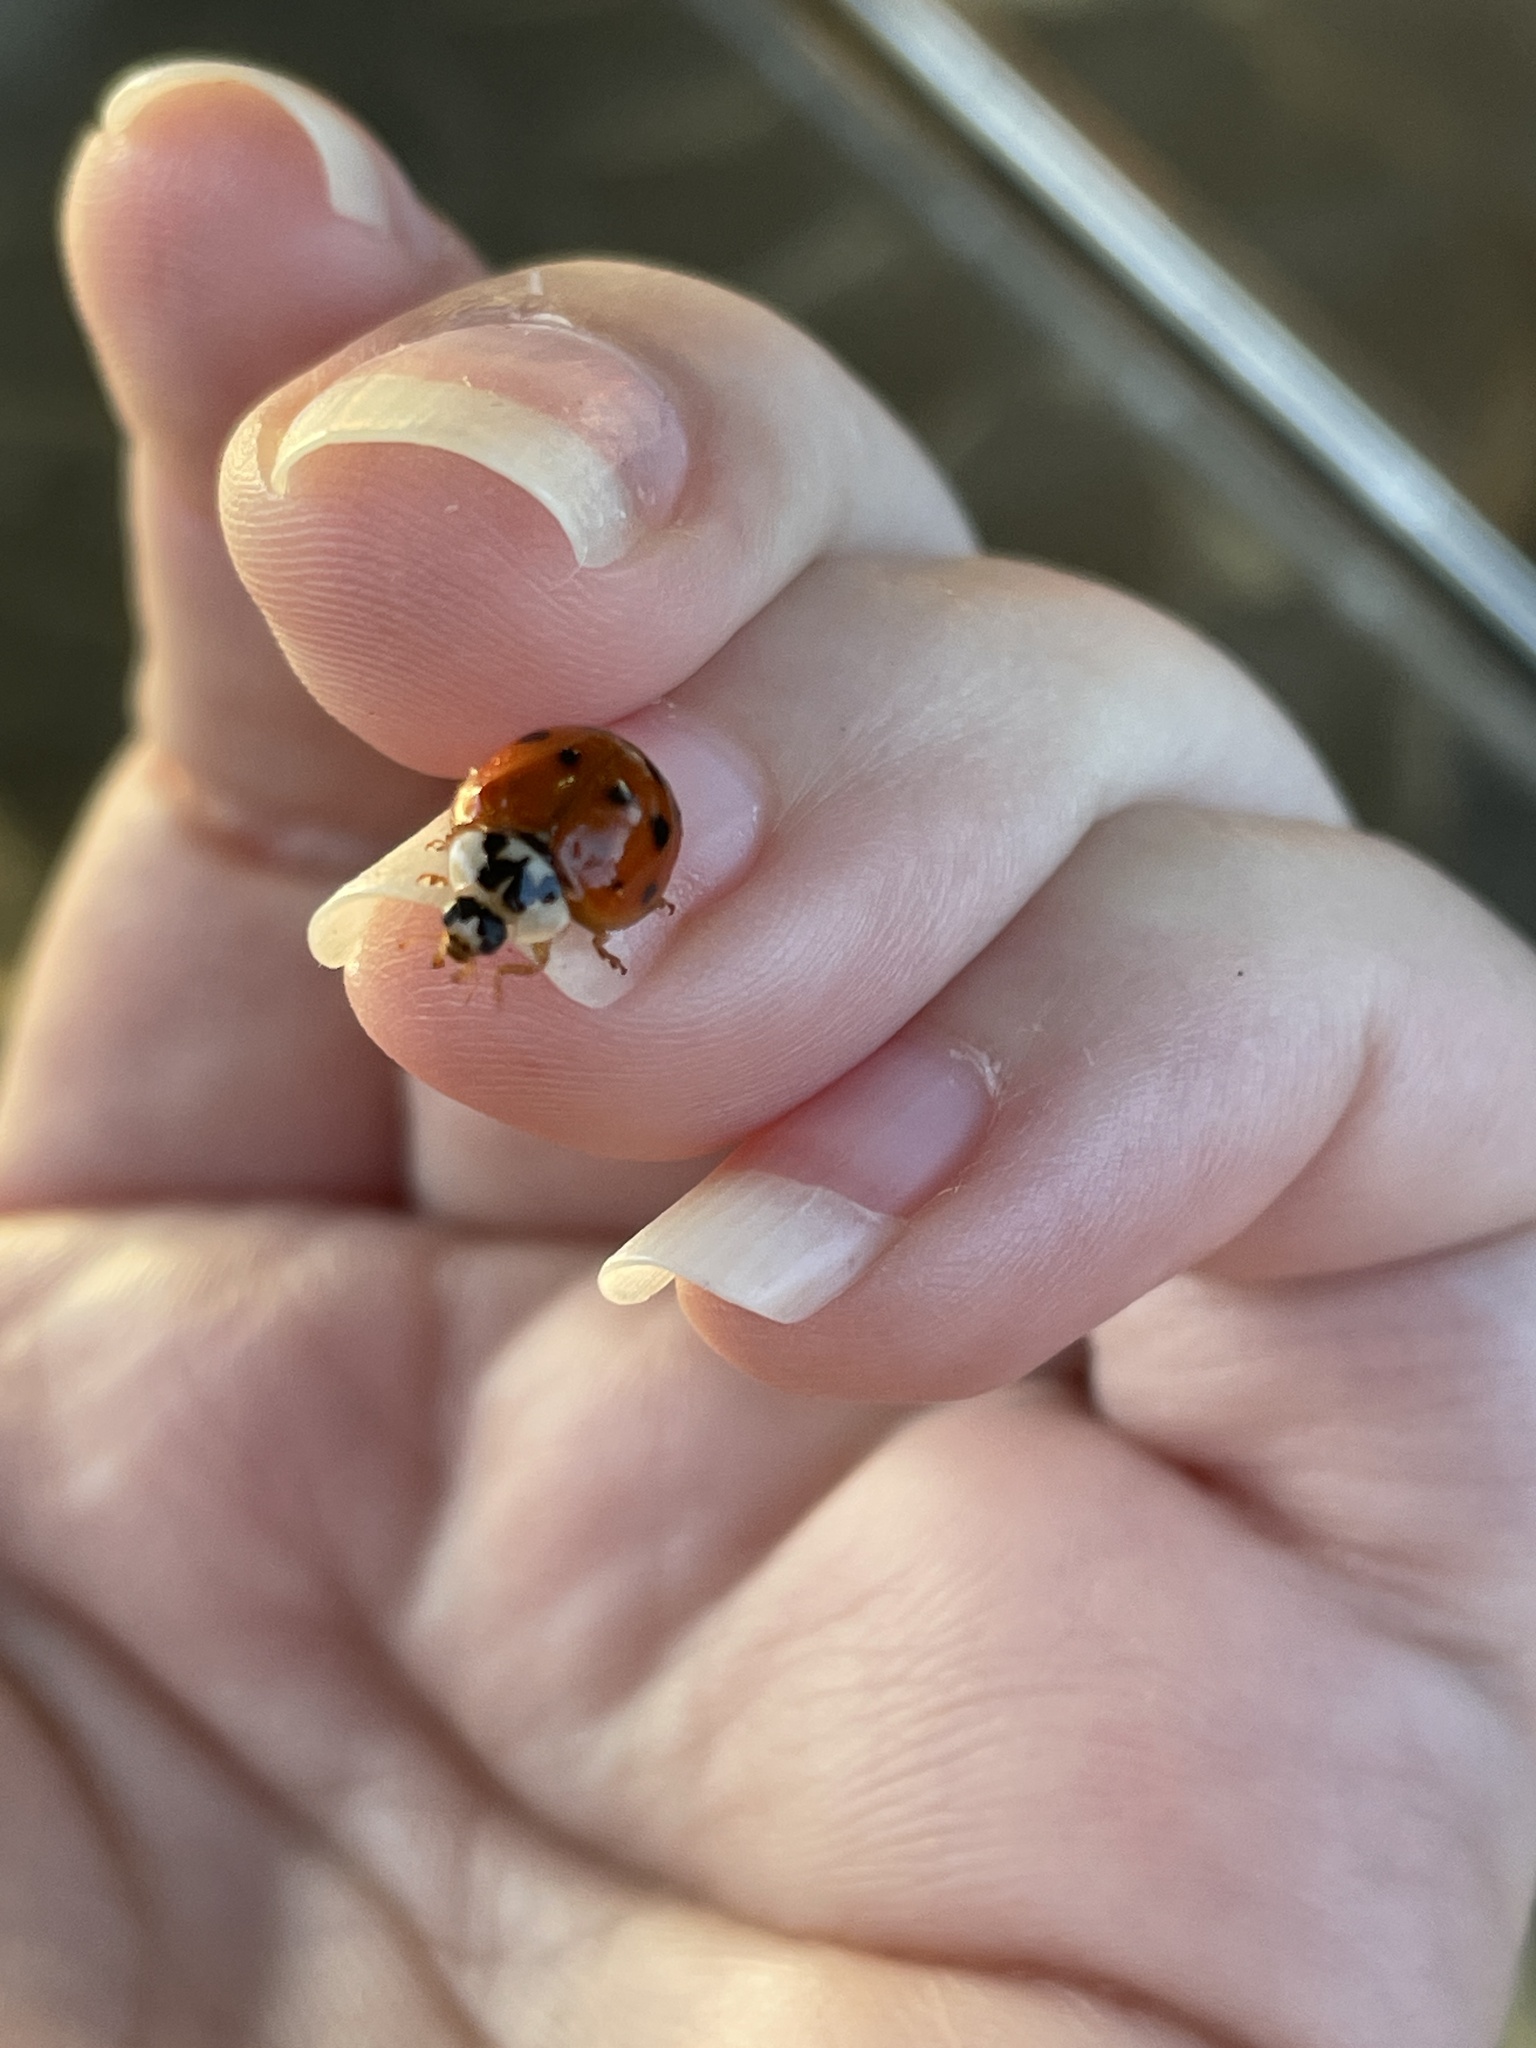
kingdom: Animalia
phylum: Arthropoda
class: Insecta
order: Coleoptera
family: Coccinellidae
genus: Harmonia
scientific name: Harmonia axyridis
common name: Harlequin ladybird
